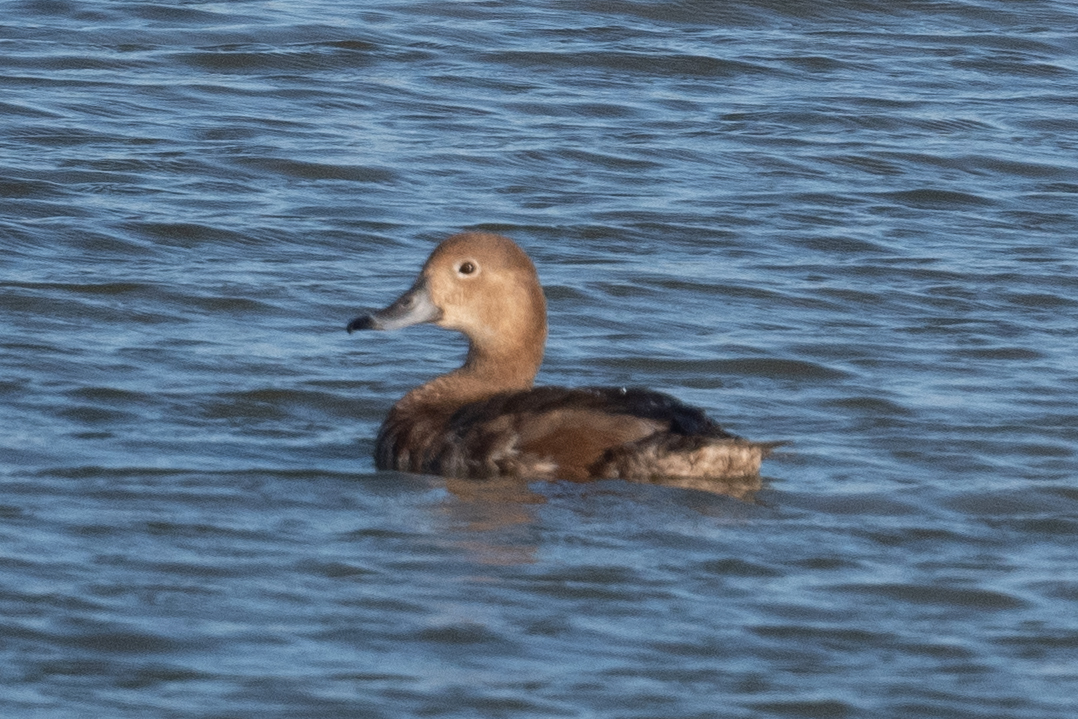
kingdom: Animalia
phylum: Chordata
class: Aves
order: Anseriformes
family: Anatidae
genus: Aythya
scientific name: Aythya americana
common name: Redhead
